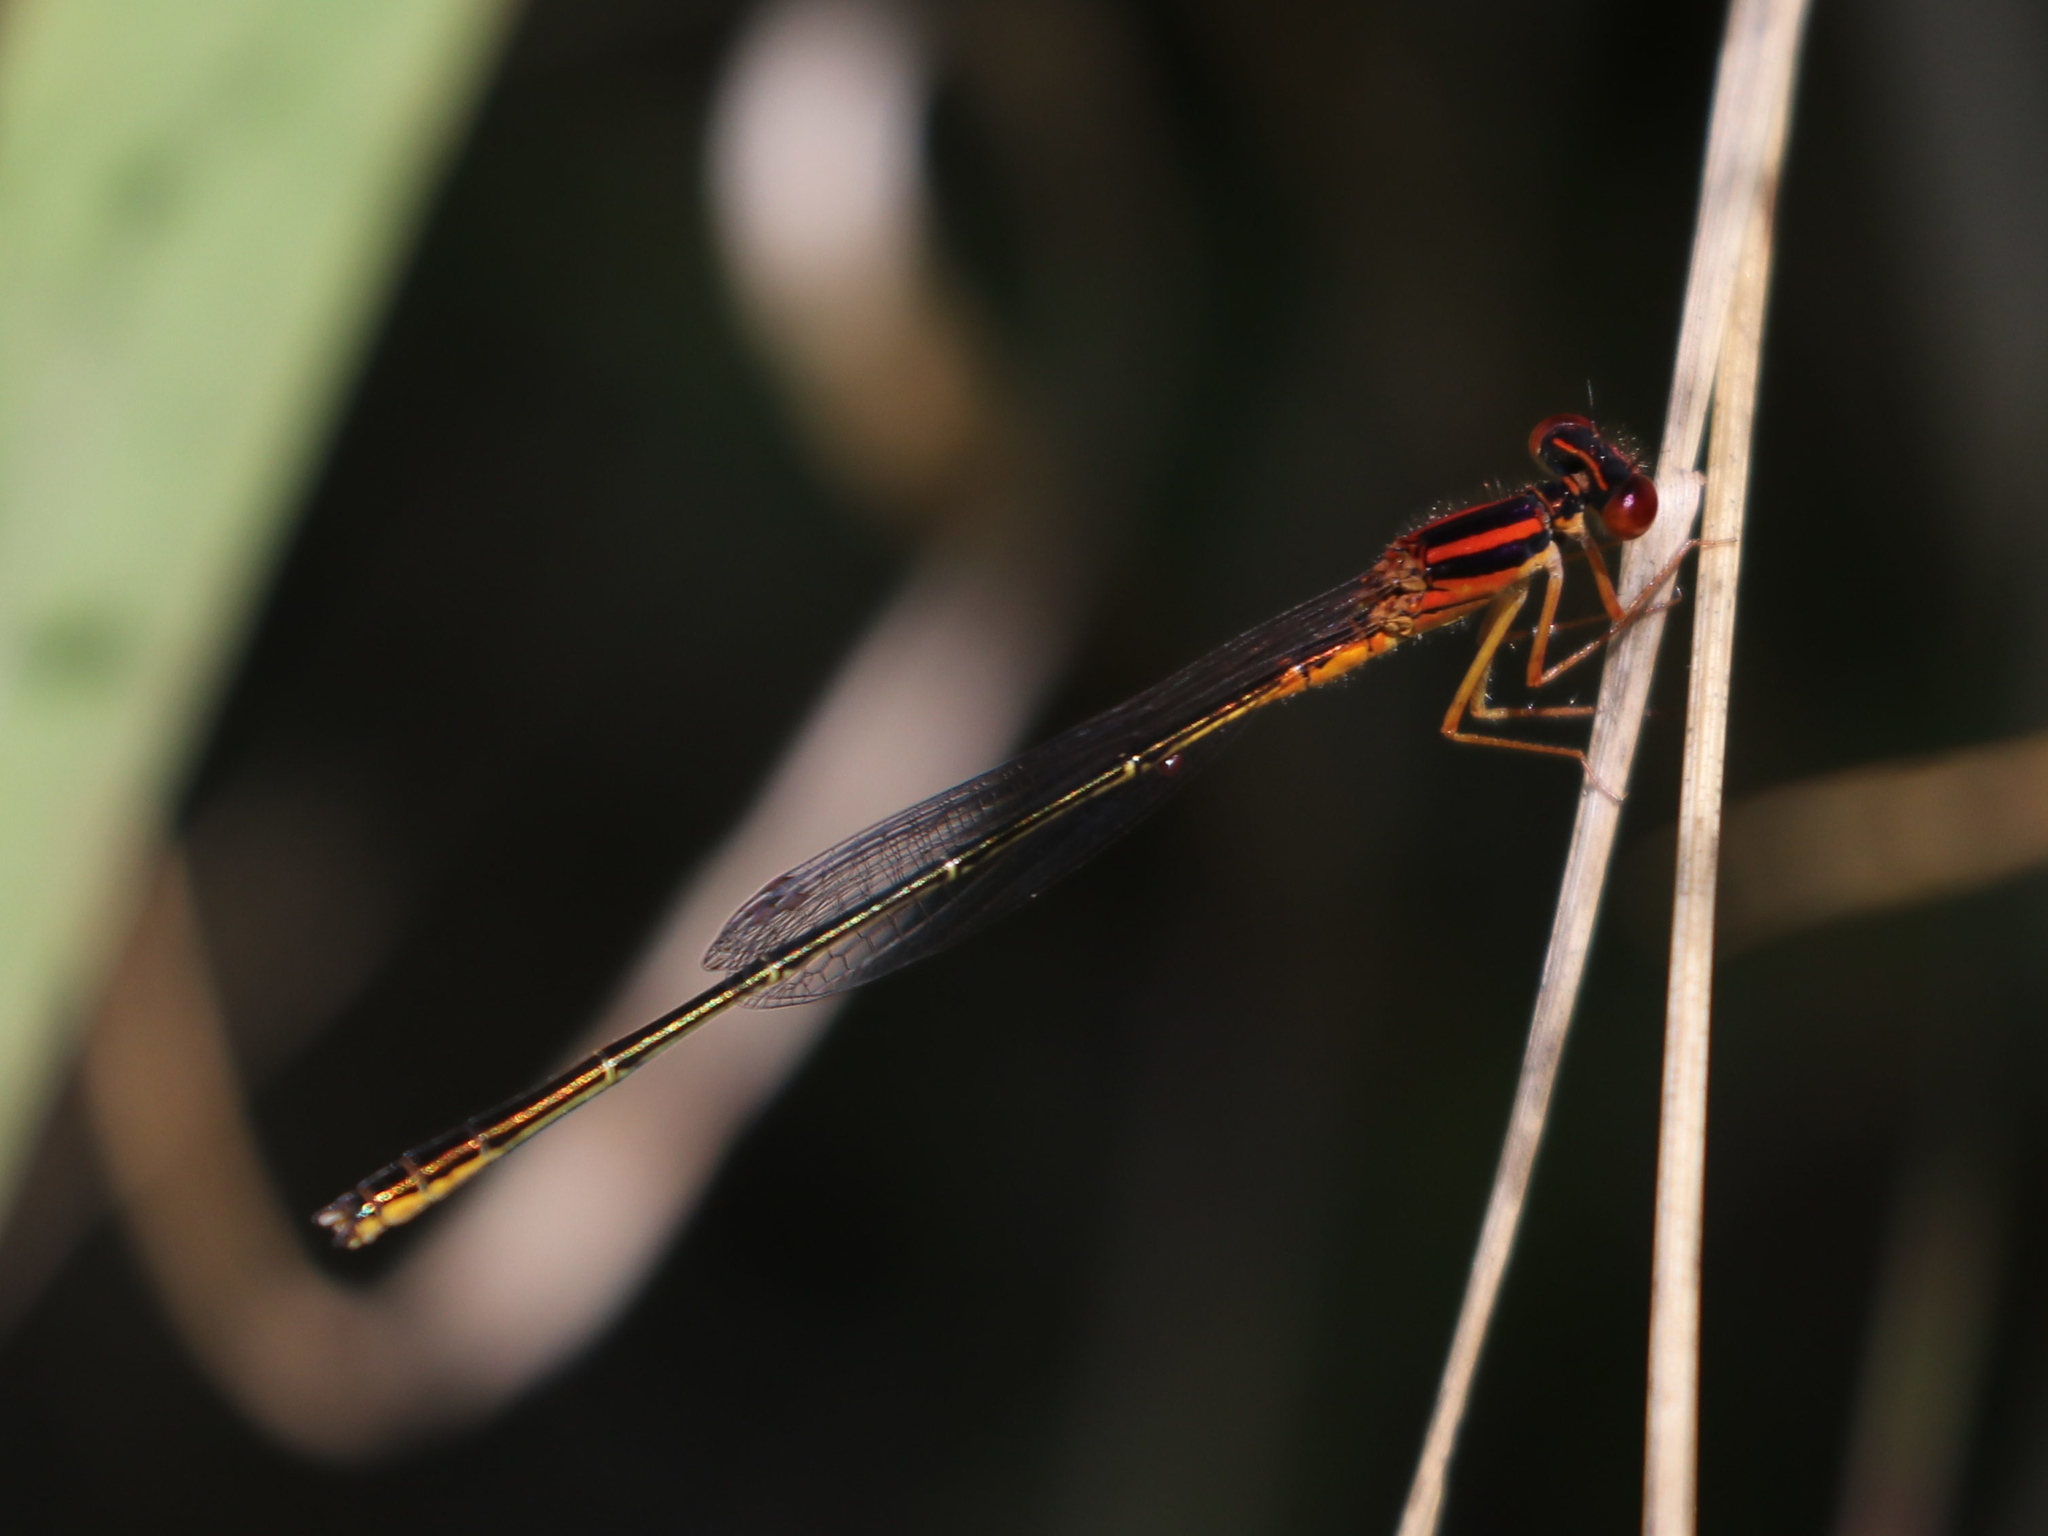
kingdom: Animalia
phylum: Arthropoda
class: Insecta
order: Odonata
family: Coenagrionidae
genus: Enallagma
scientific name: Enallagma pictum
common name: Scarlet bluet
